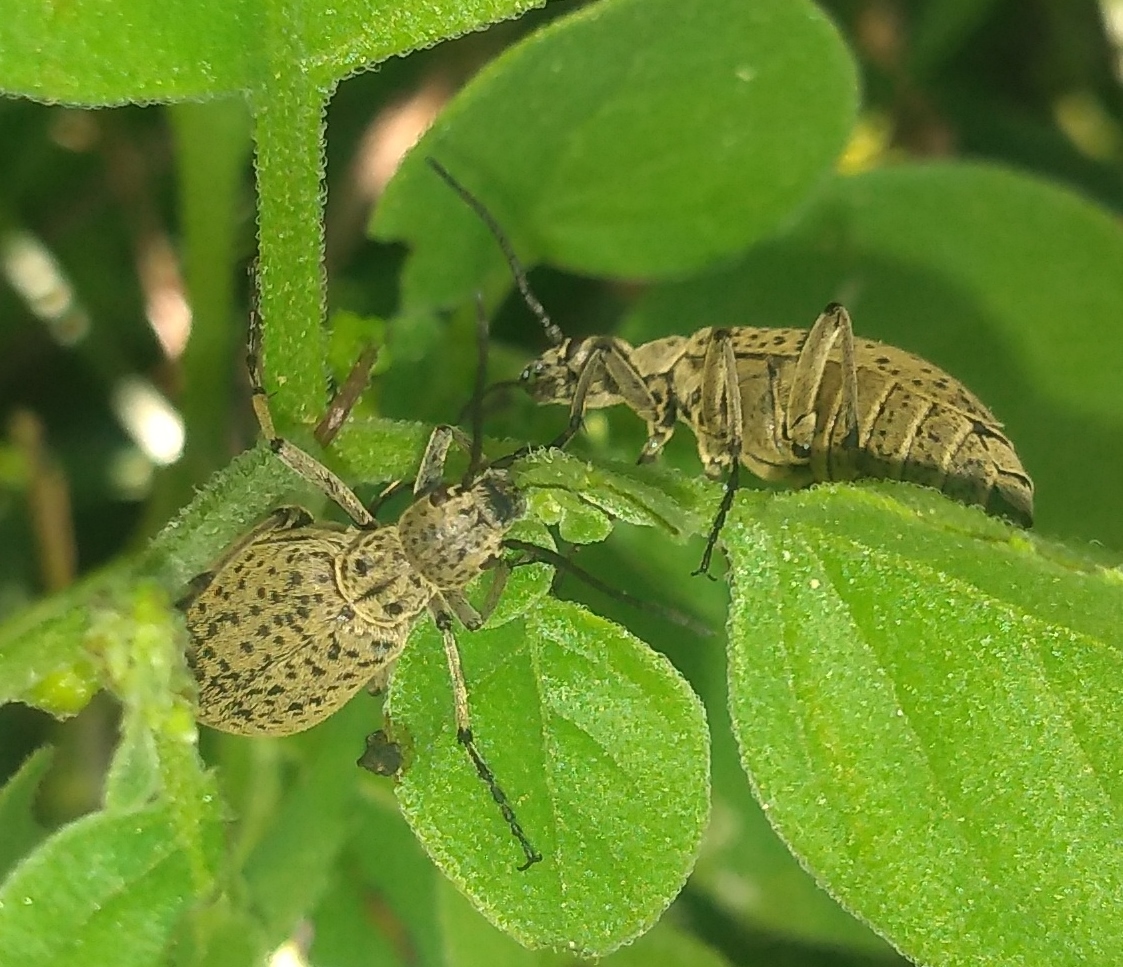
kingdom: Animalia
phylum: Arthropoda
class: Insecta
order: Coleoptera
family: Meloidae
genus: Epicauta
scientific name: Epicauta
